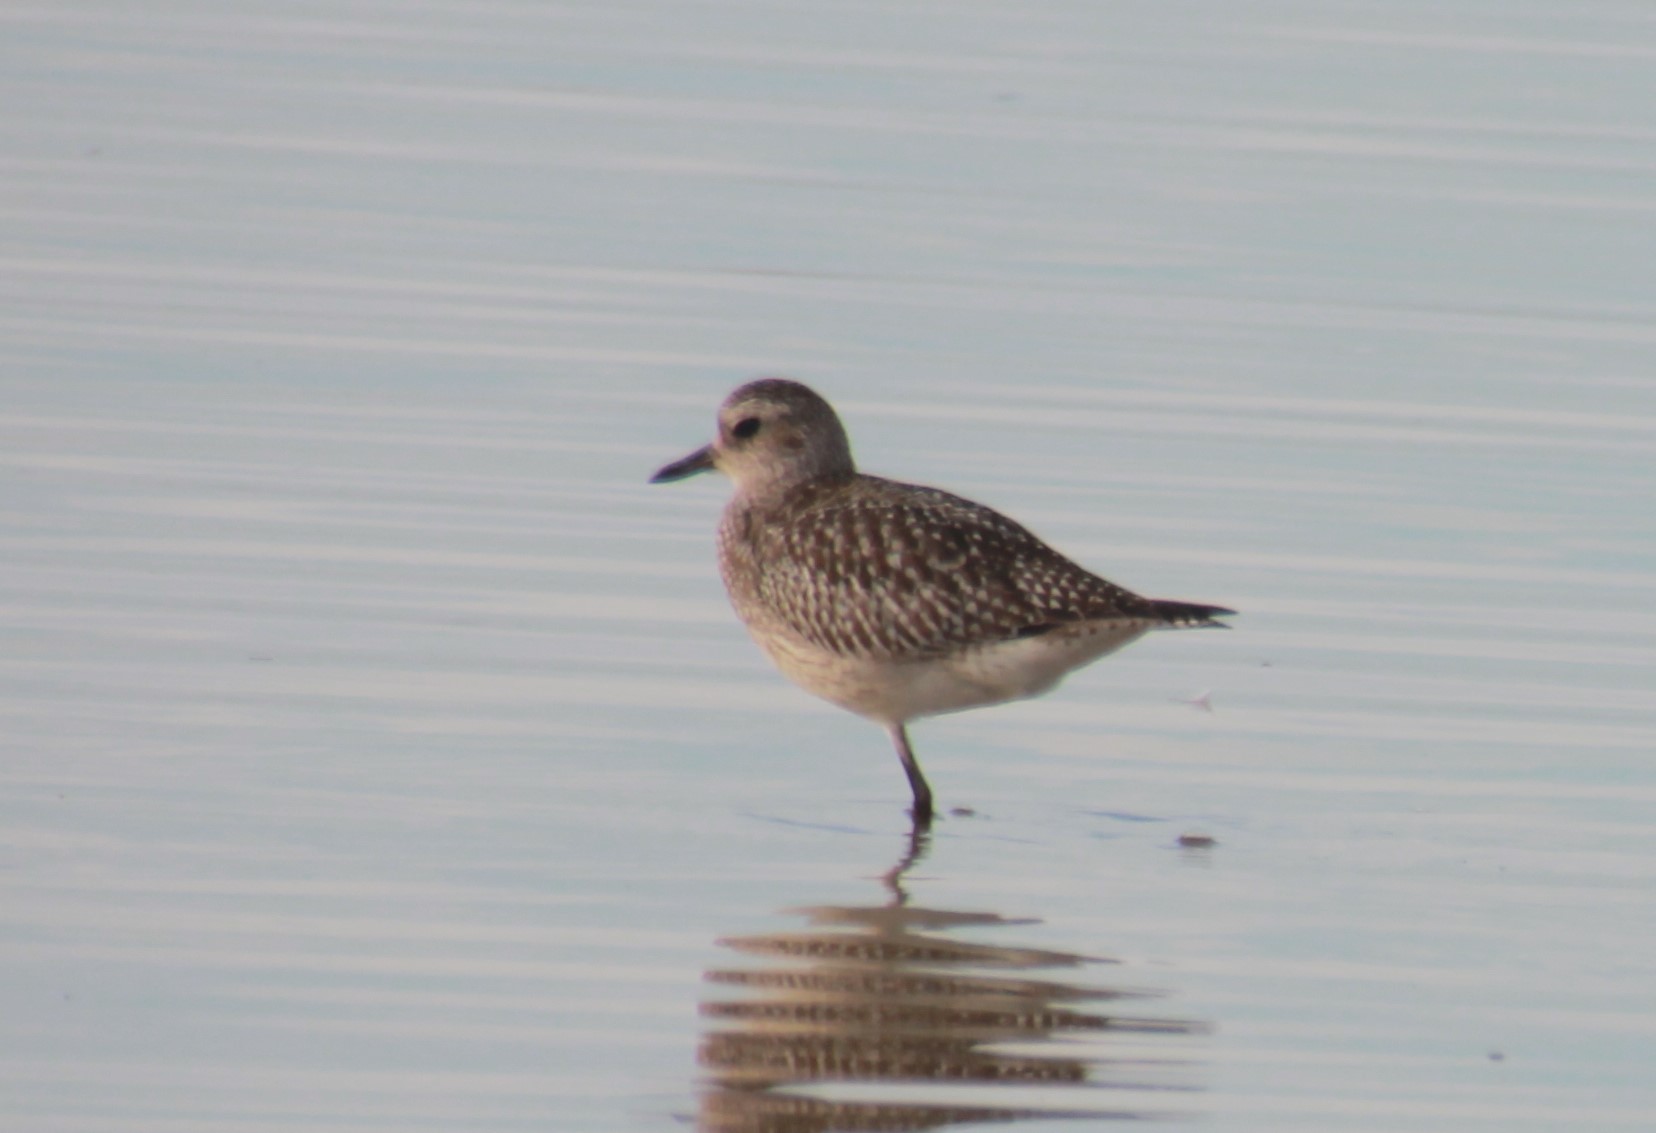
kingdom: Animalia
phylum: Chordata
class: Aves
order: Charadriiformes
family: Charadriidae
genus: Pluvialis
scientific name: Pluvialis squatarola
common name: Grey plover
